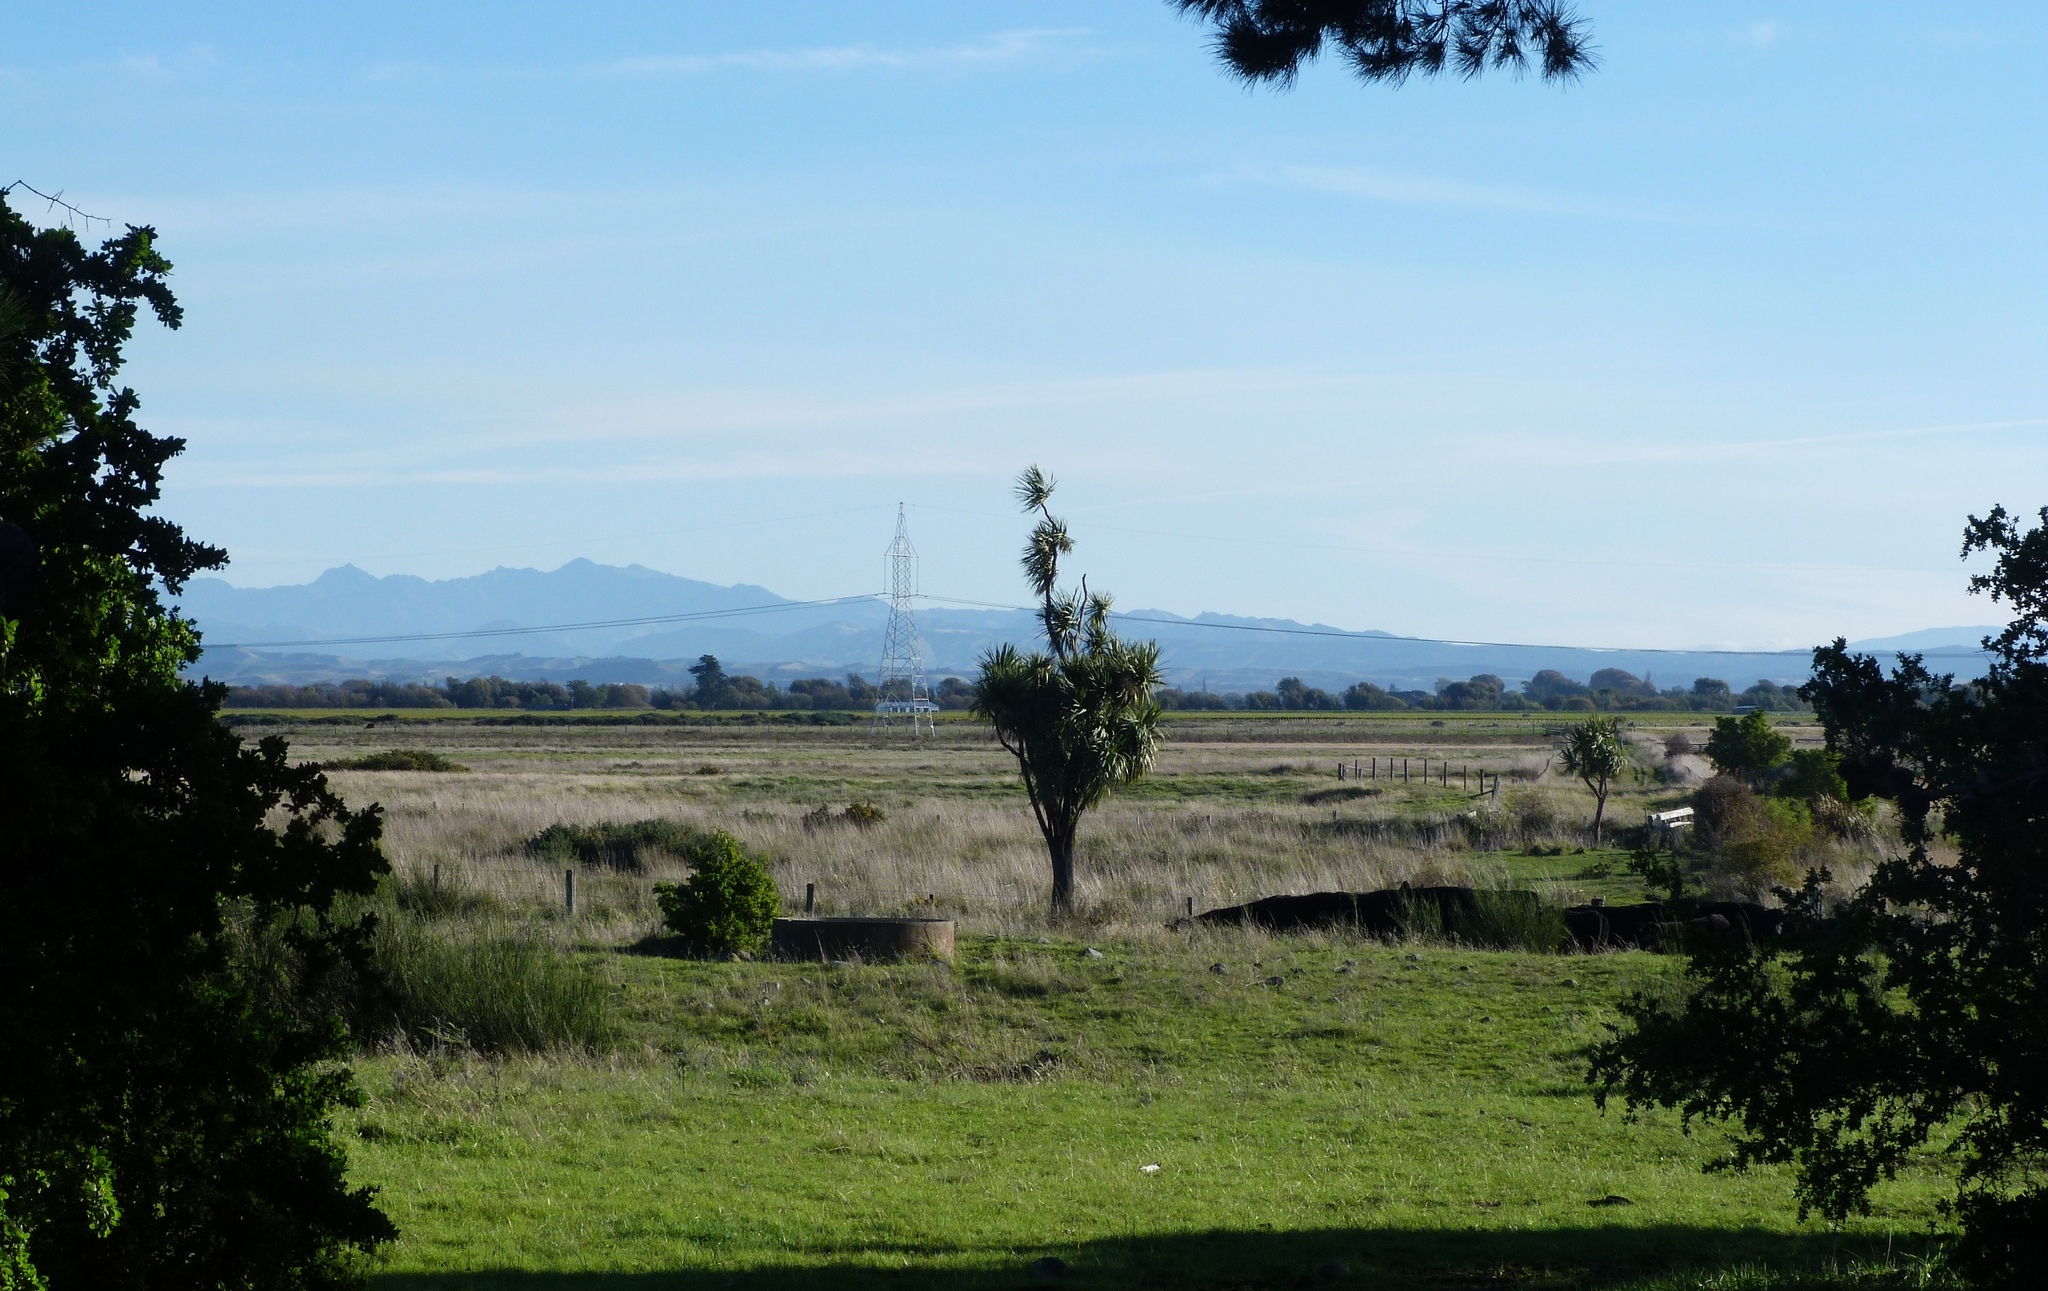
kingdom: Plantae
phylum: Tracheophyta
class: Liliopsida
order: Asparagales
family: Asparagaceae
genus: Cordyline
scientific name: Cordyline australis
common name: Cabbage-palm
